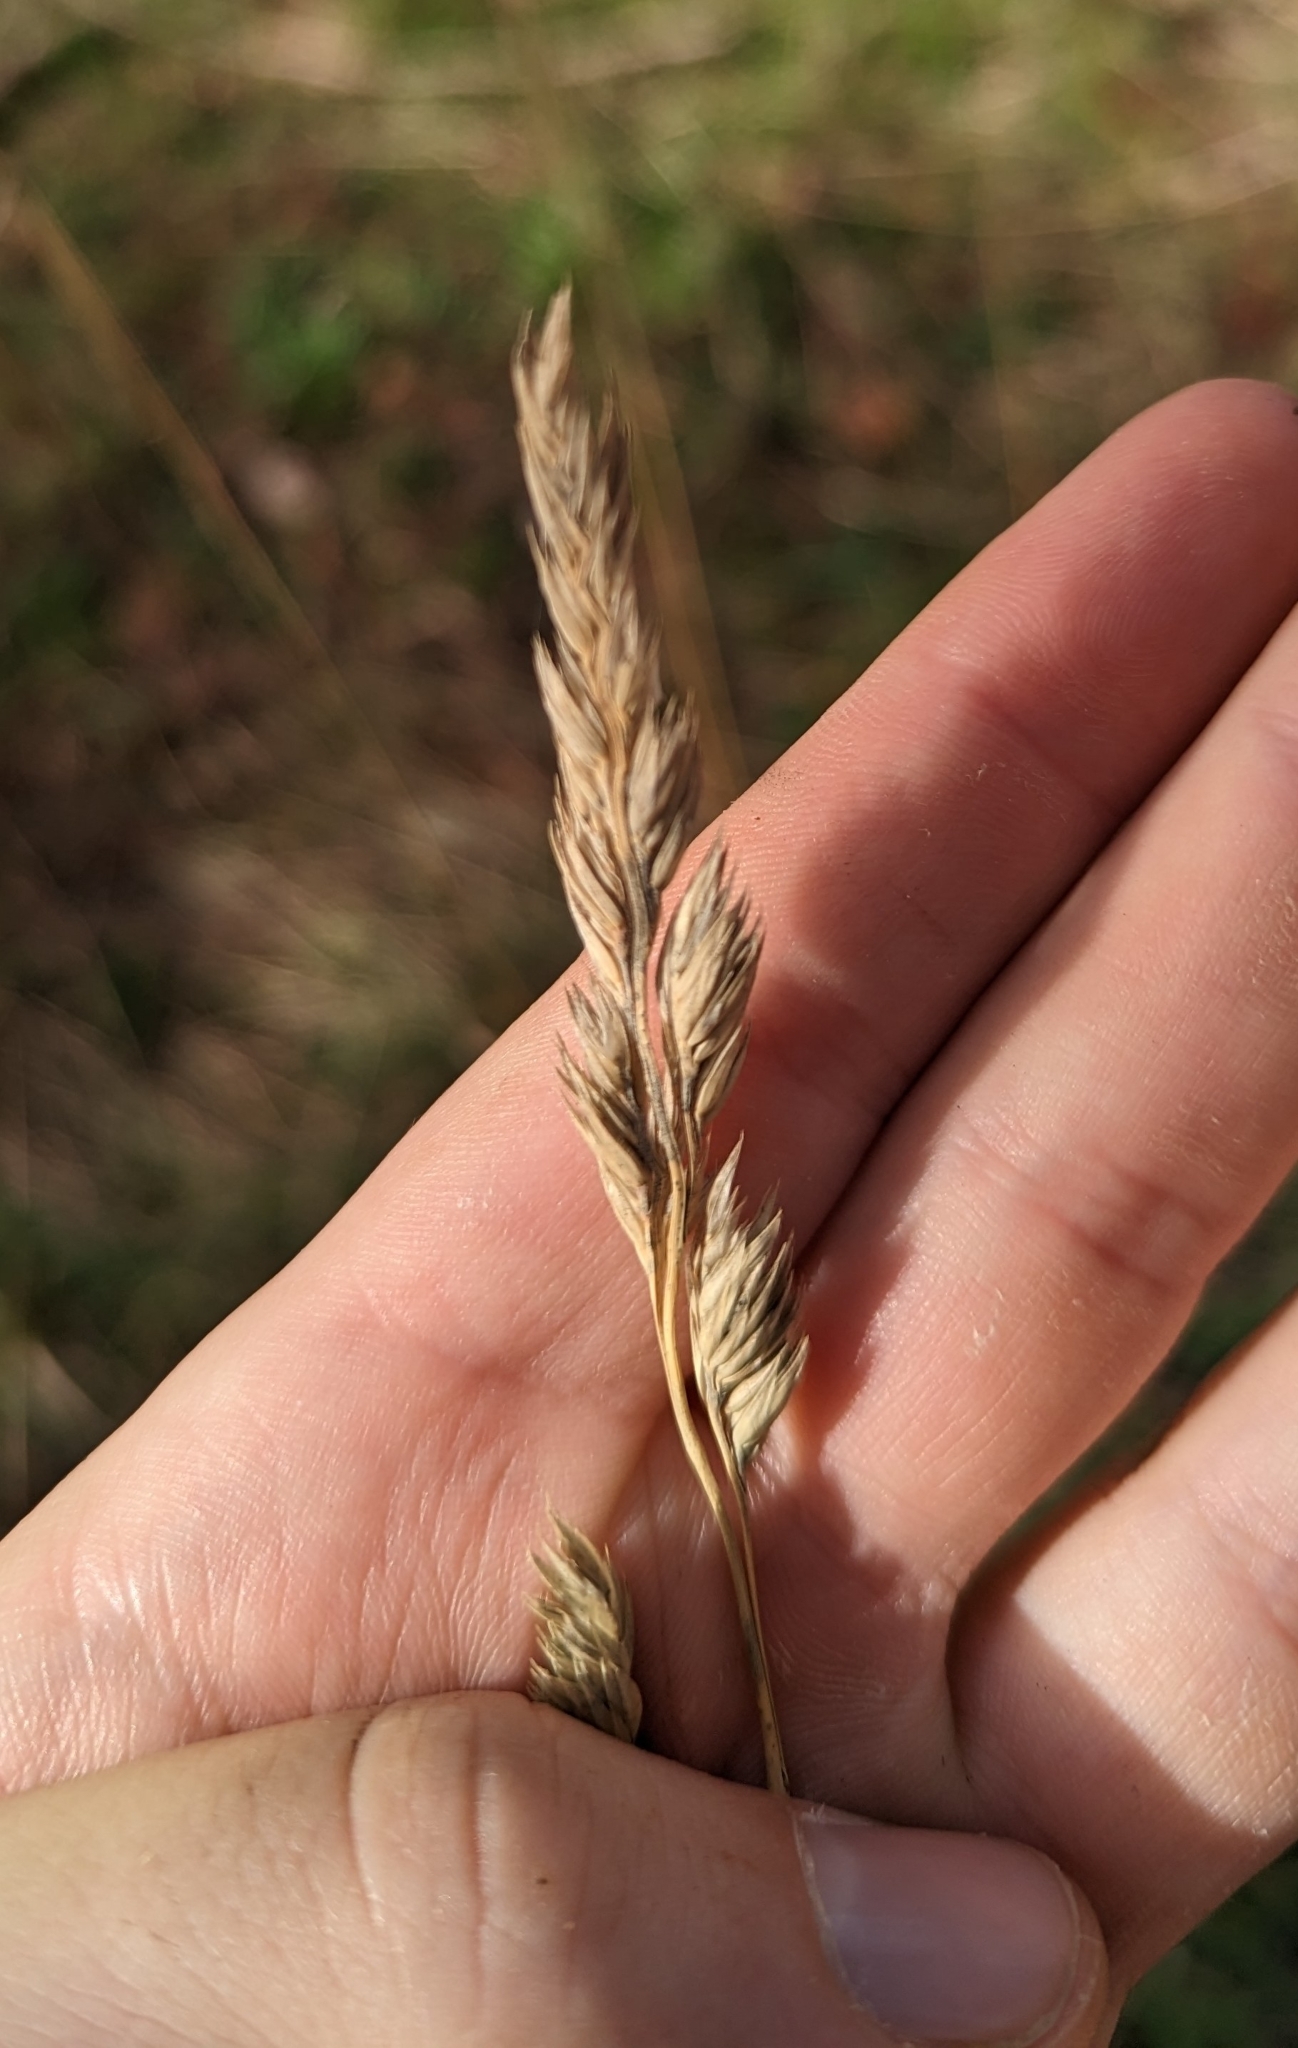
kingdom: Plantae
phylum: Tracheophyta
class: Liliopsida
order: Poales
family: Poaceae
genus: Dactylis
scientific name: Dactylis glomerata
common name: Orchardgrass
